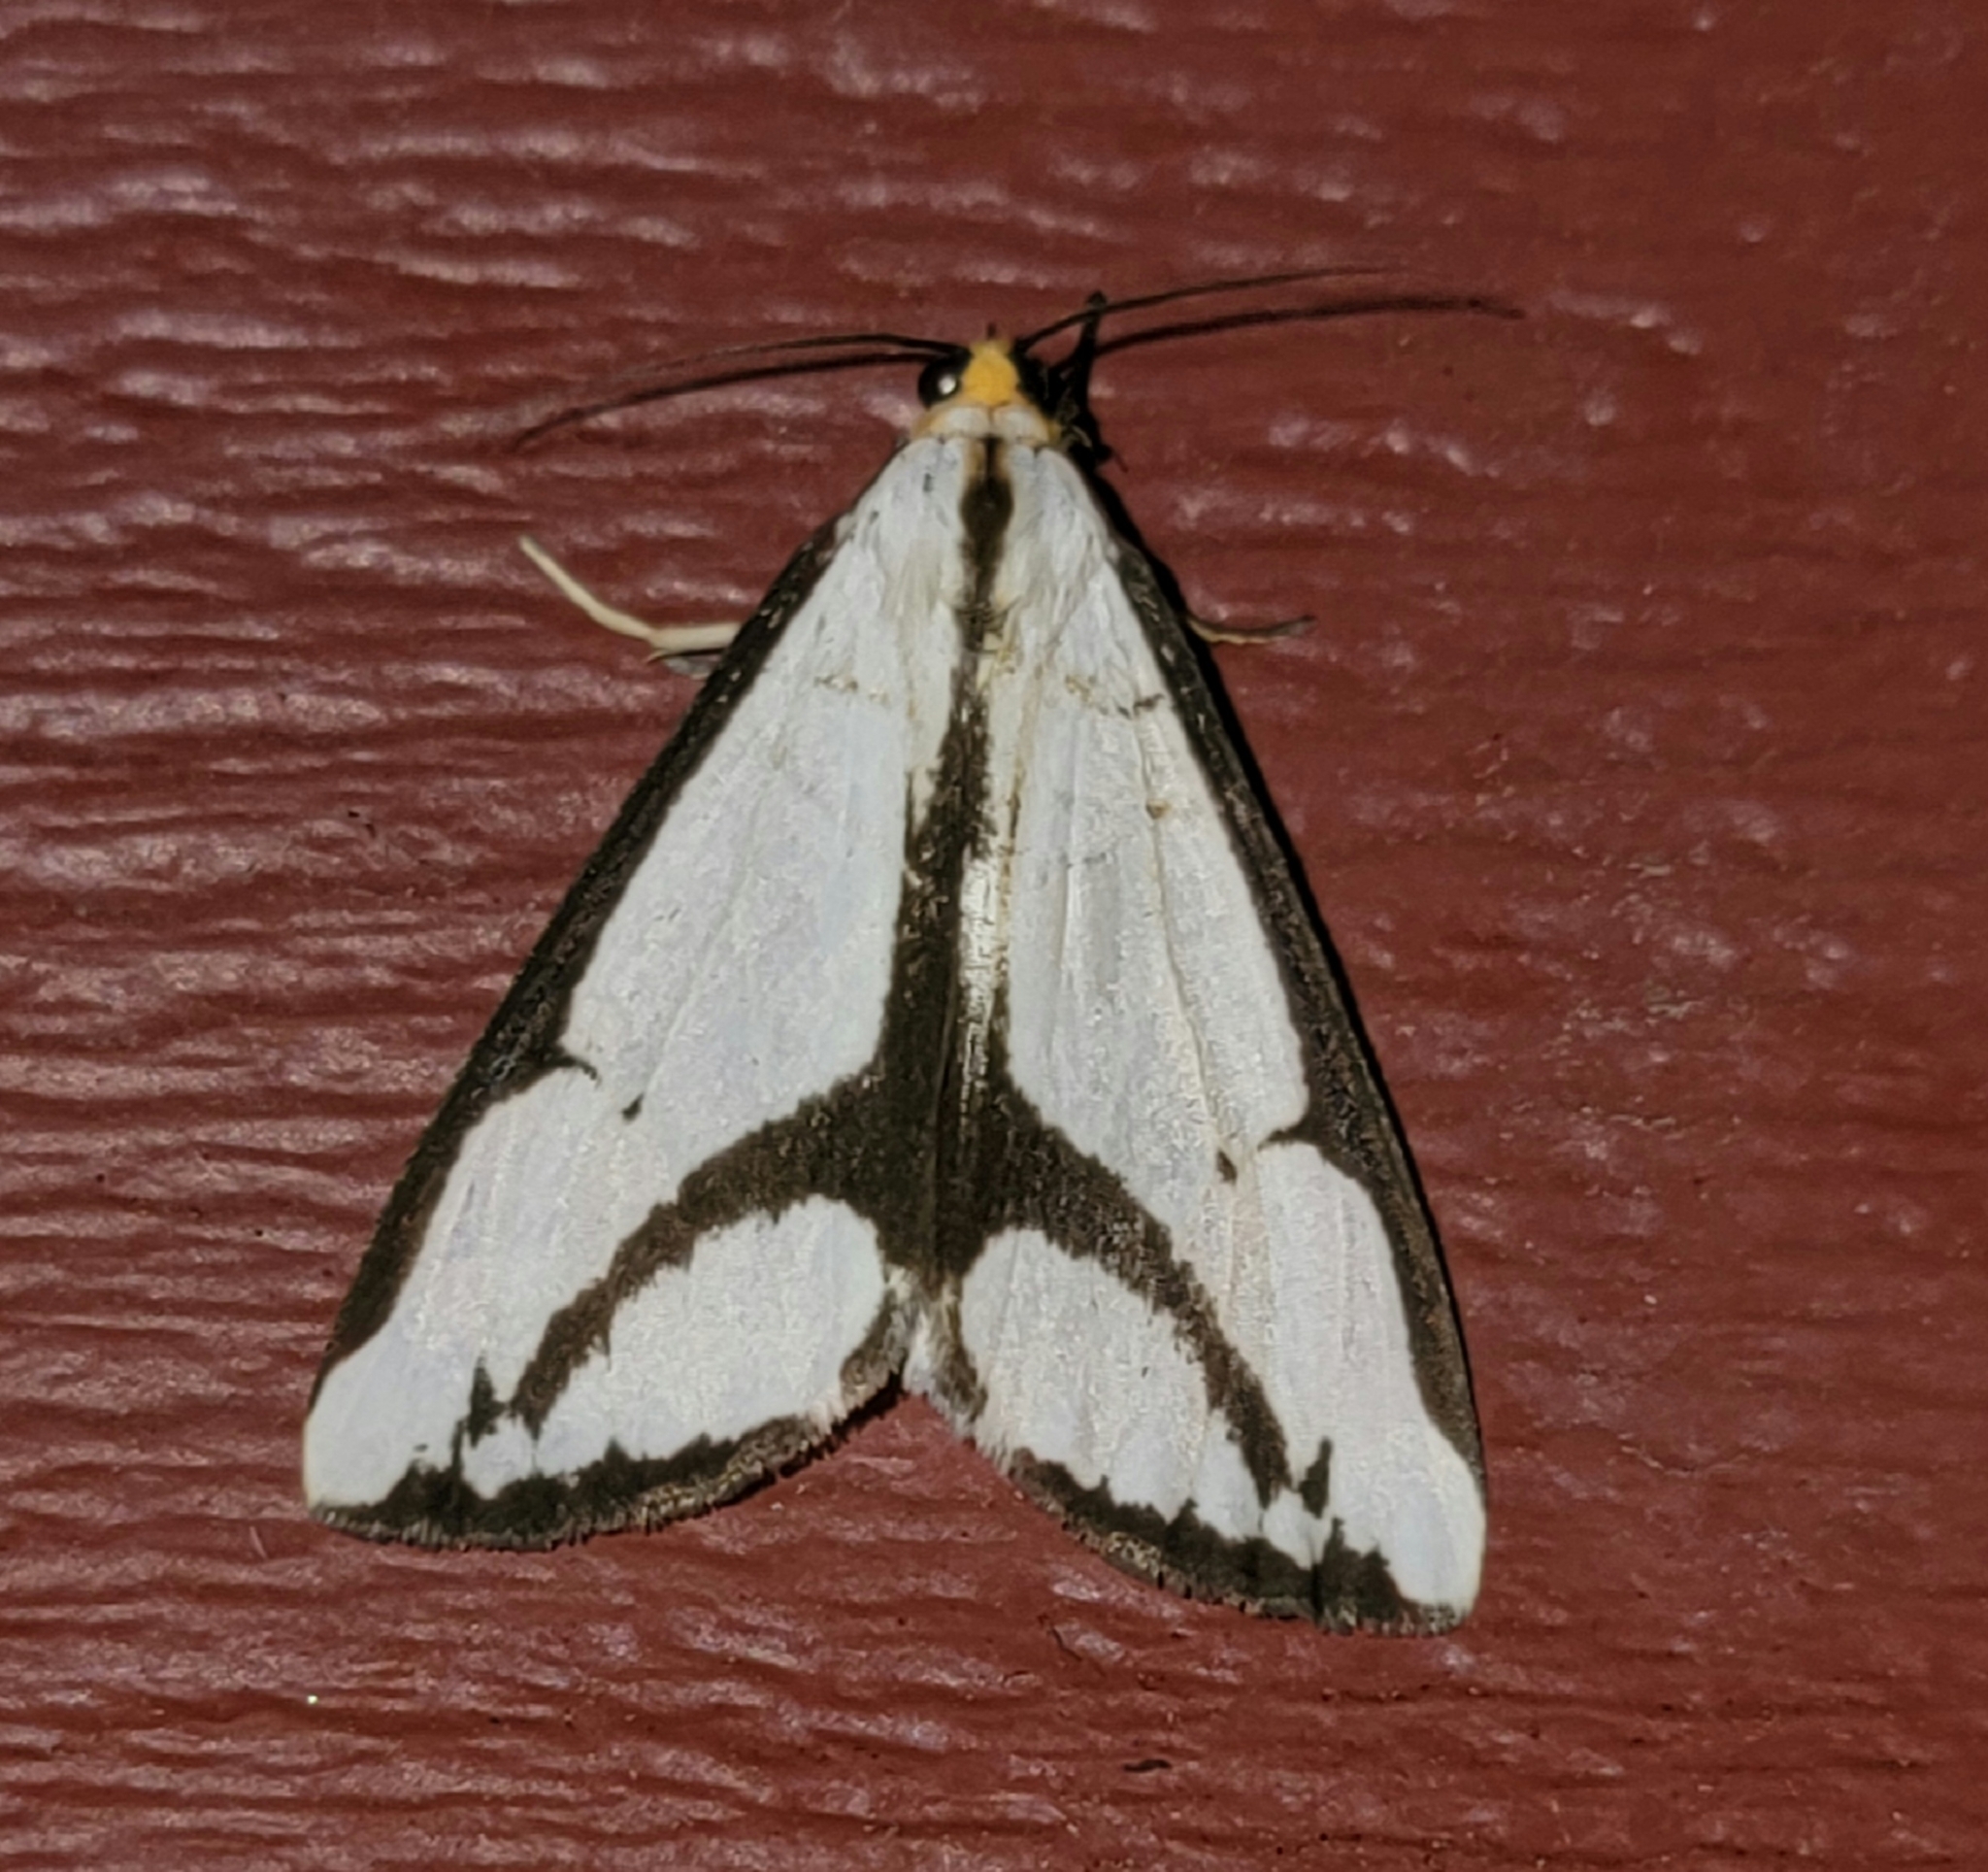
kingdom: Animalia
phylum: Arthropoda
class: Insecta
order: Lepidoptera
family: Erebidae
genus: Haploa
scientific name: Haploa lecontei
